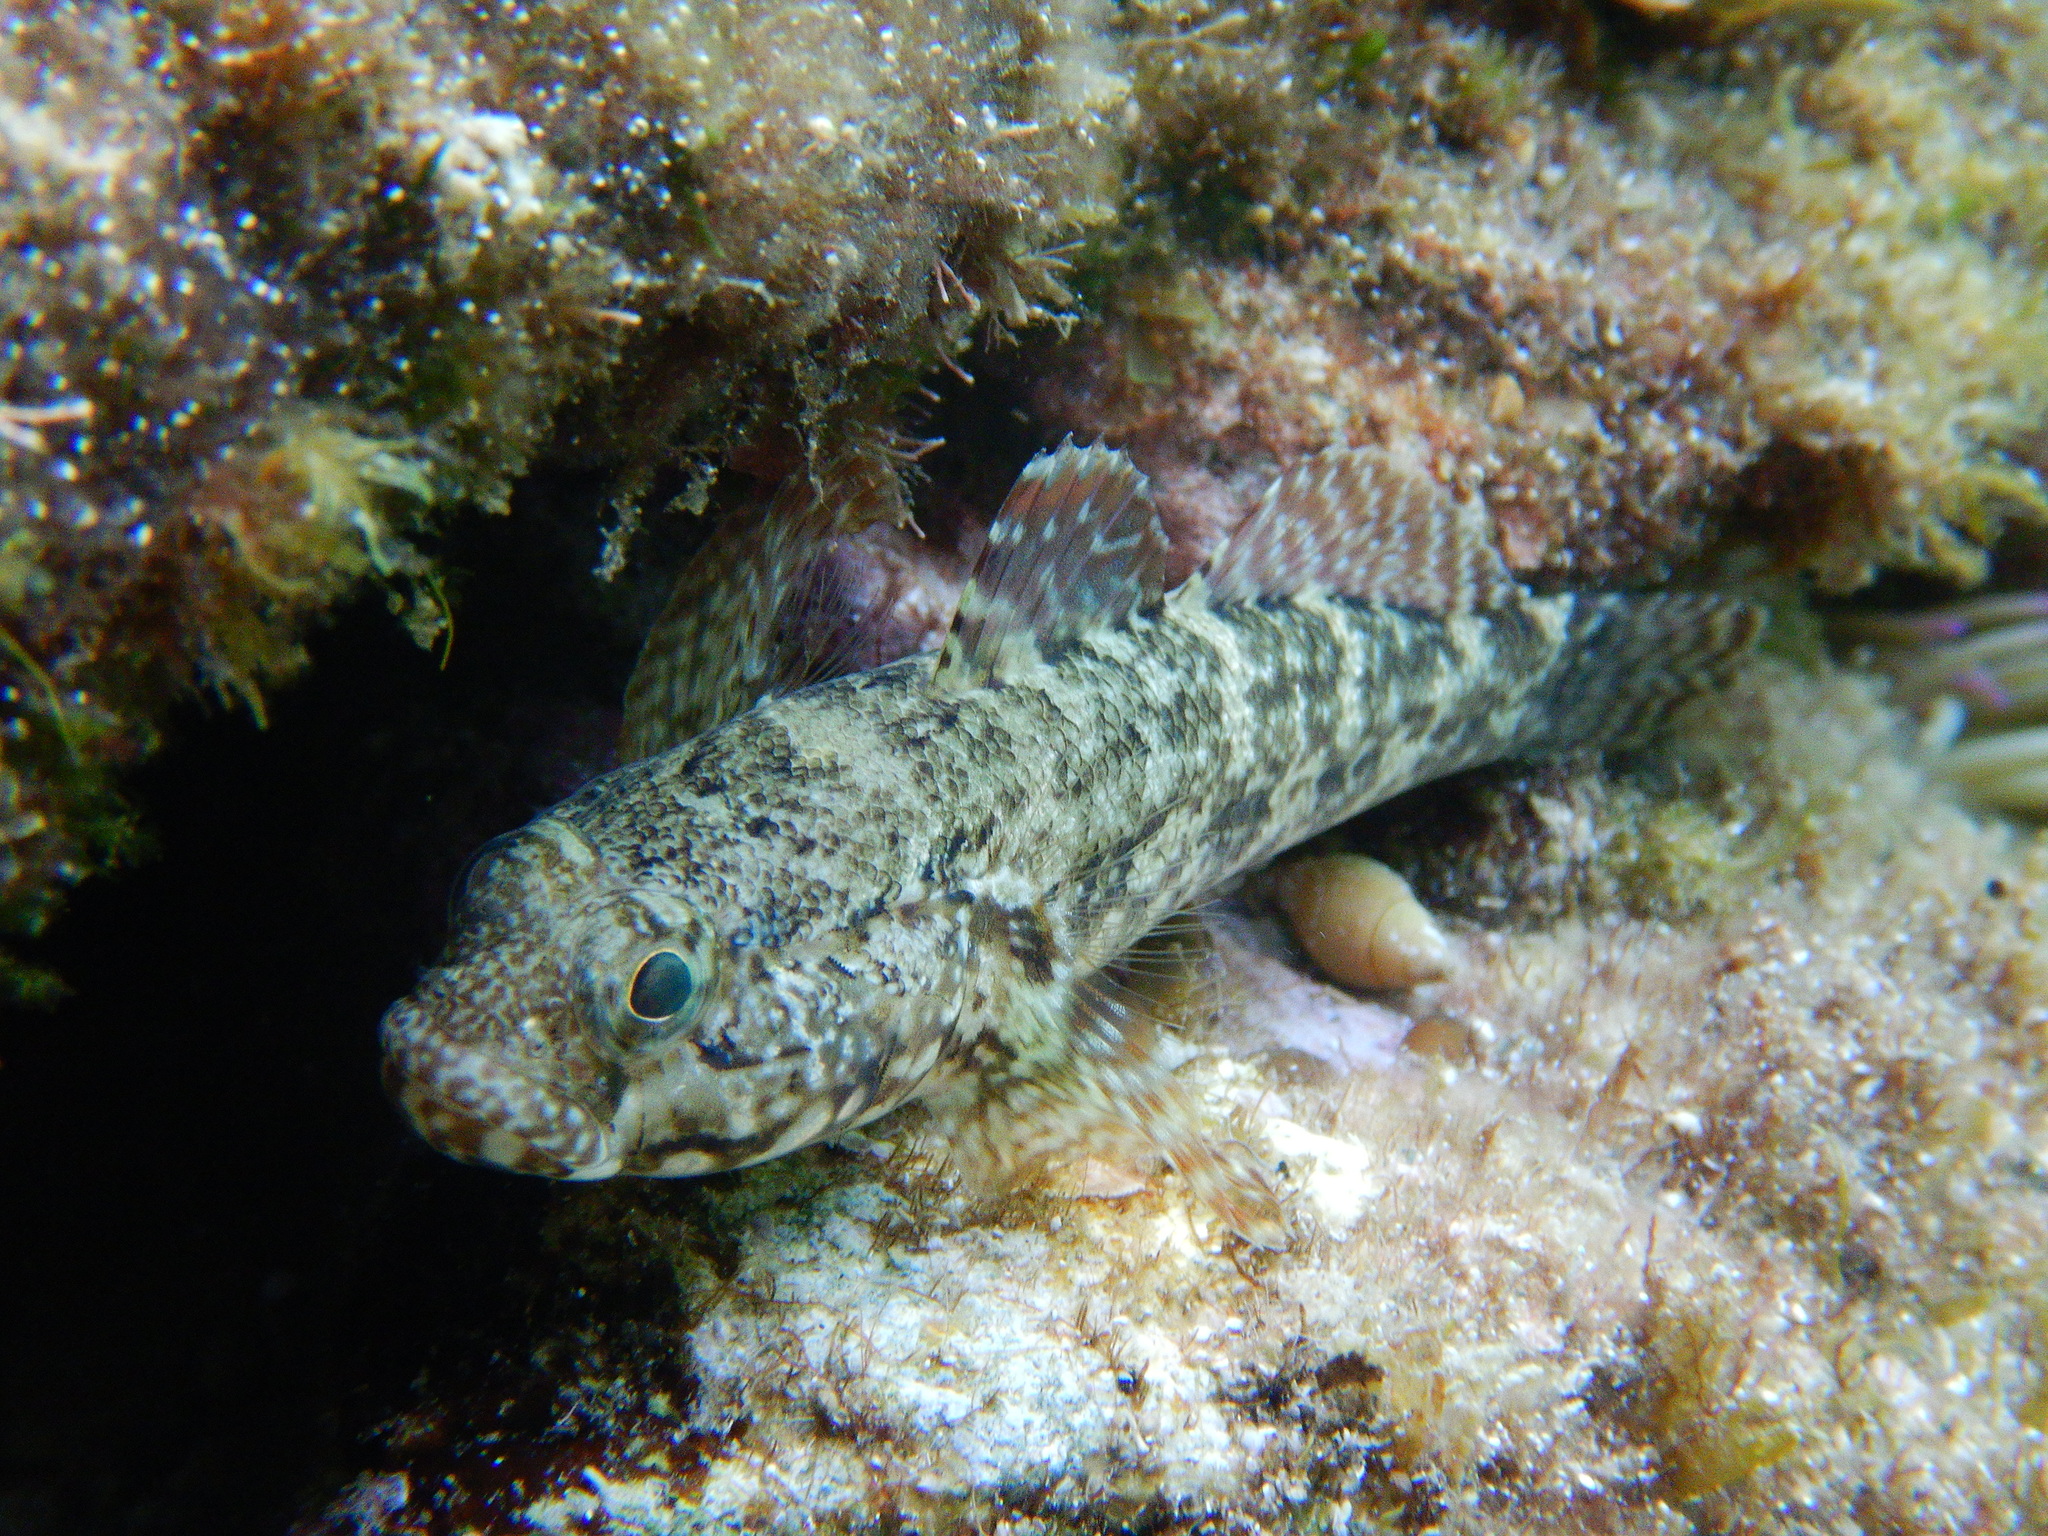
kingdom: Animalia
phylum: Chordata
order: Perciformes
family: Gobiidae
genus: Gobius
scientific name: Gobius paganellus
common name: Rock goby
